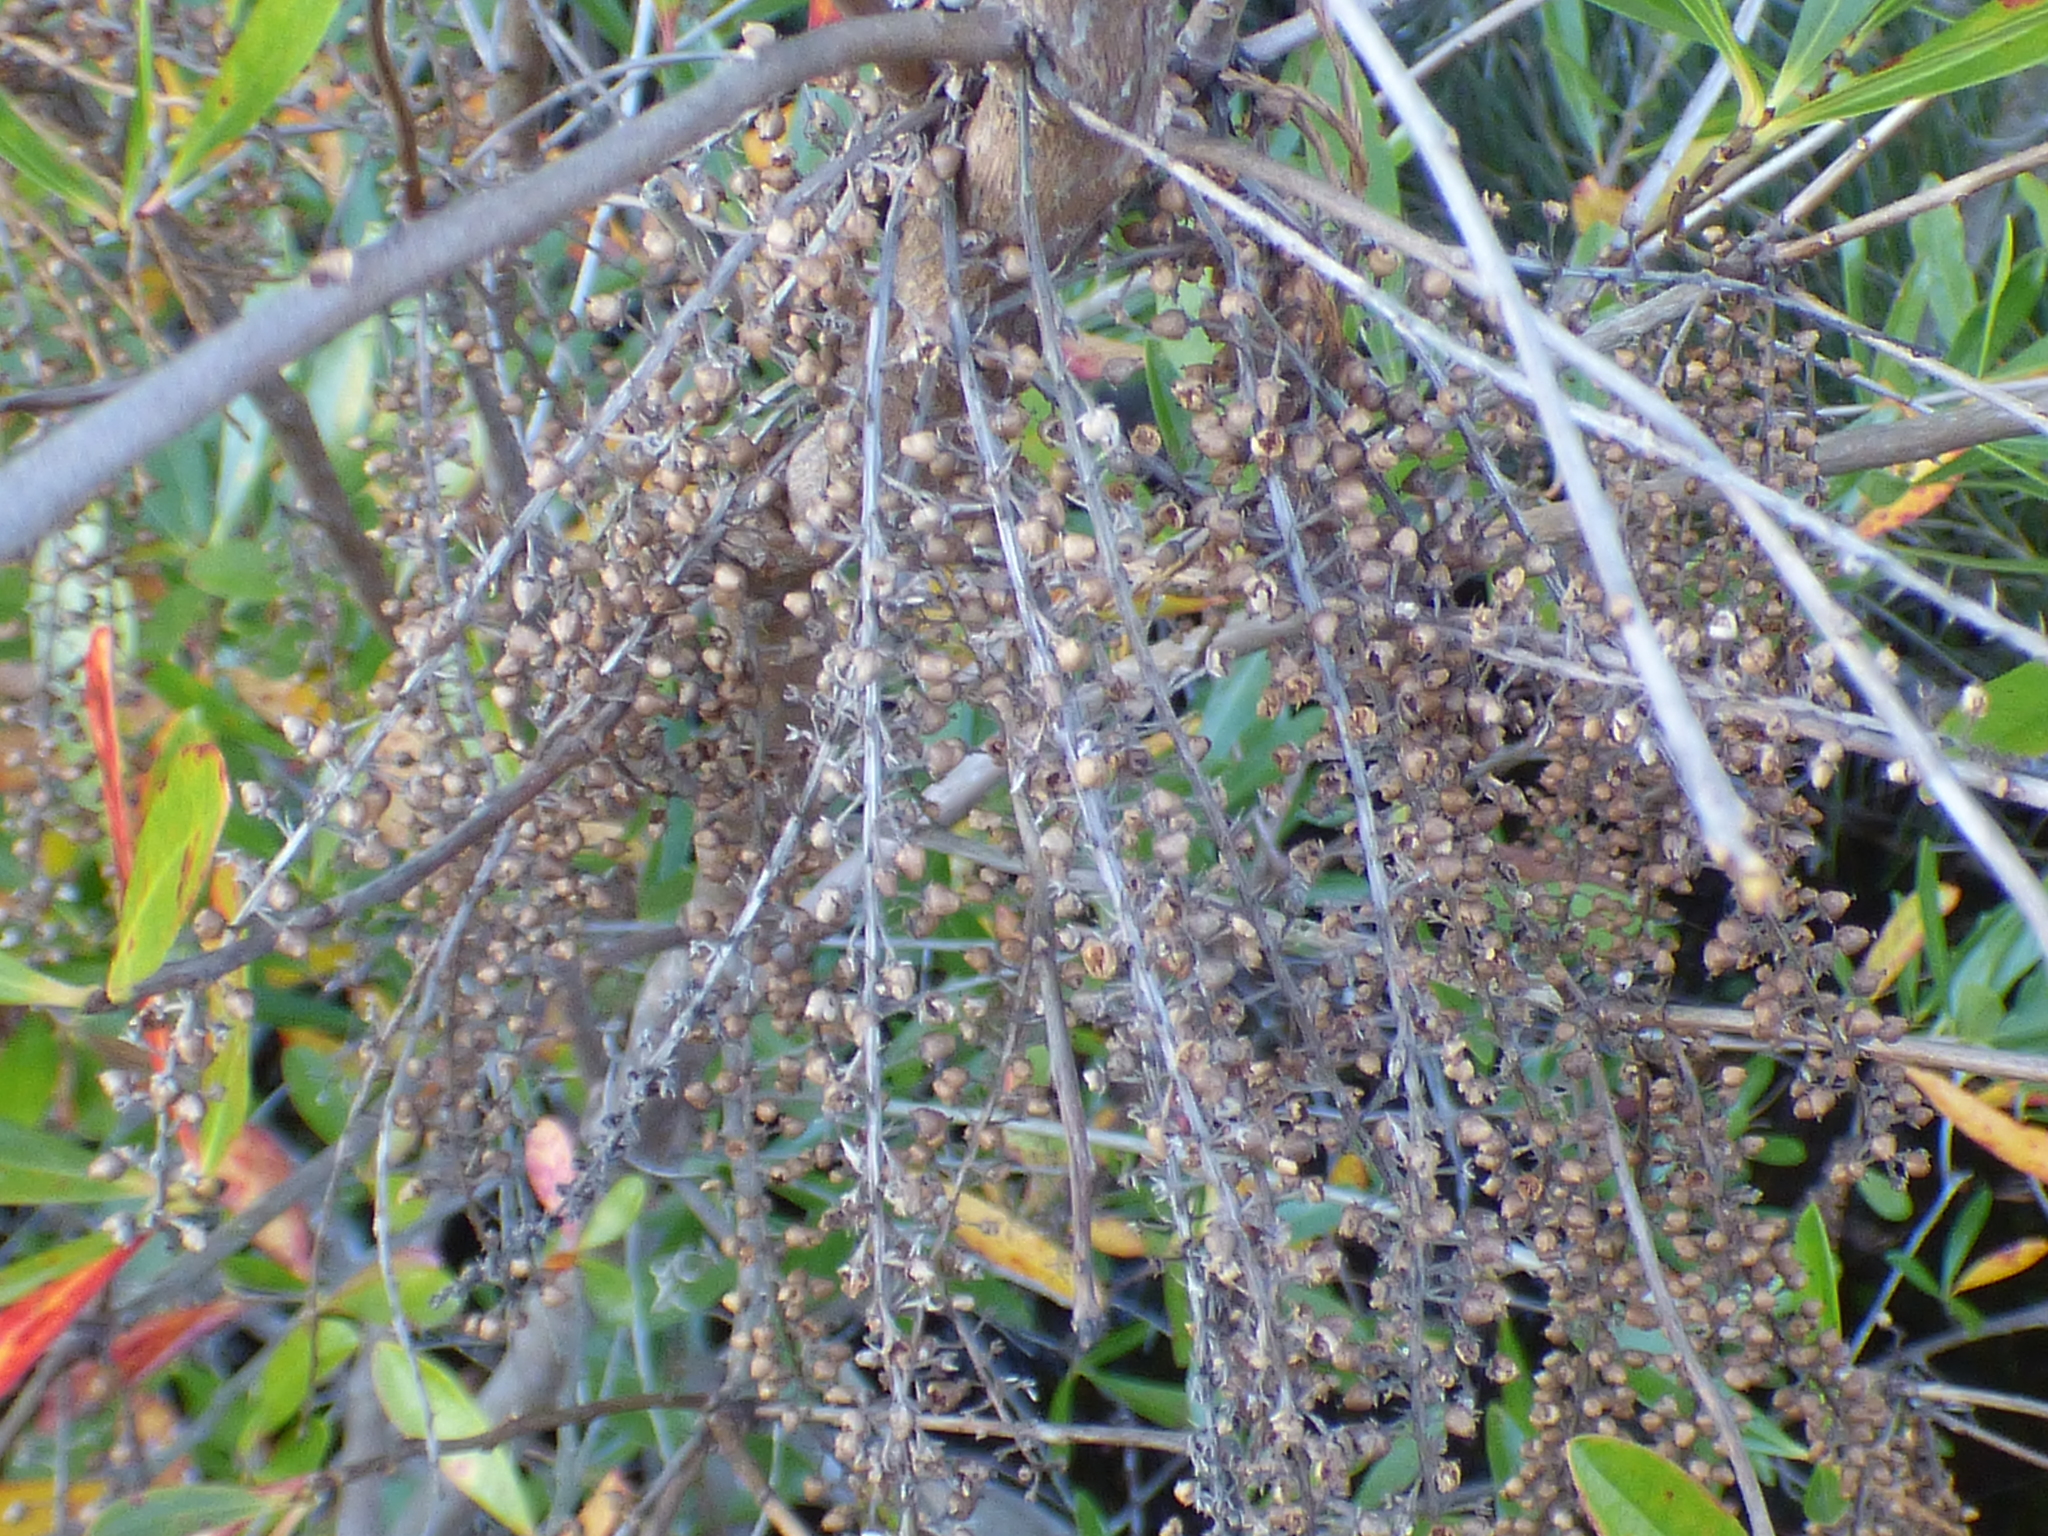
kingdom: Plantae
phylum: Tracheophyta
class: Magnoliopsida
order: Ericales
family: Cyrillaceae
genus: Cyrilla
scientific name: Cyrilla racemiflora
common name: Black titi
